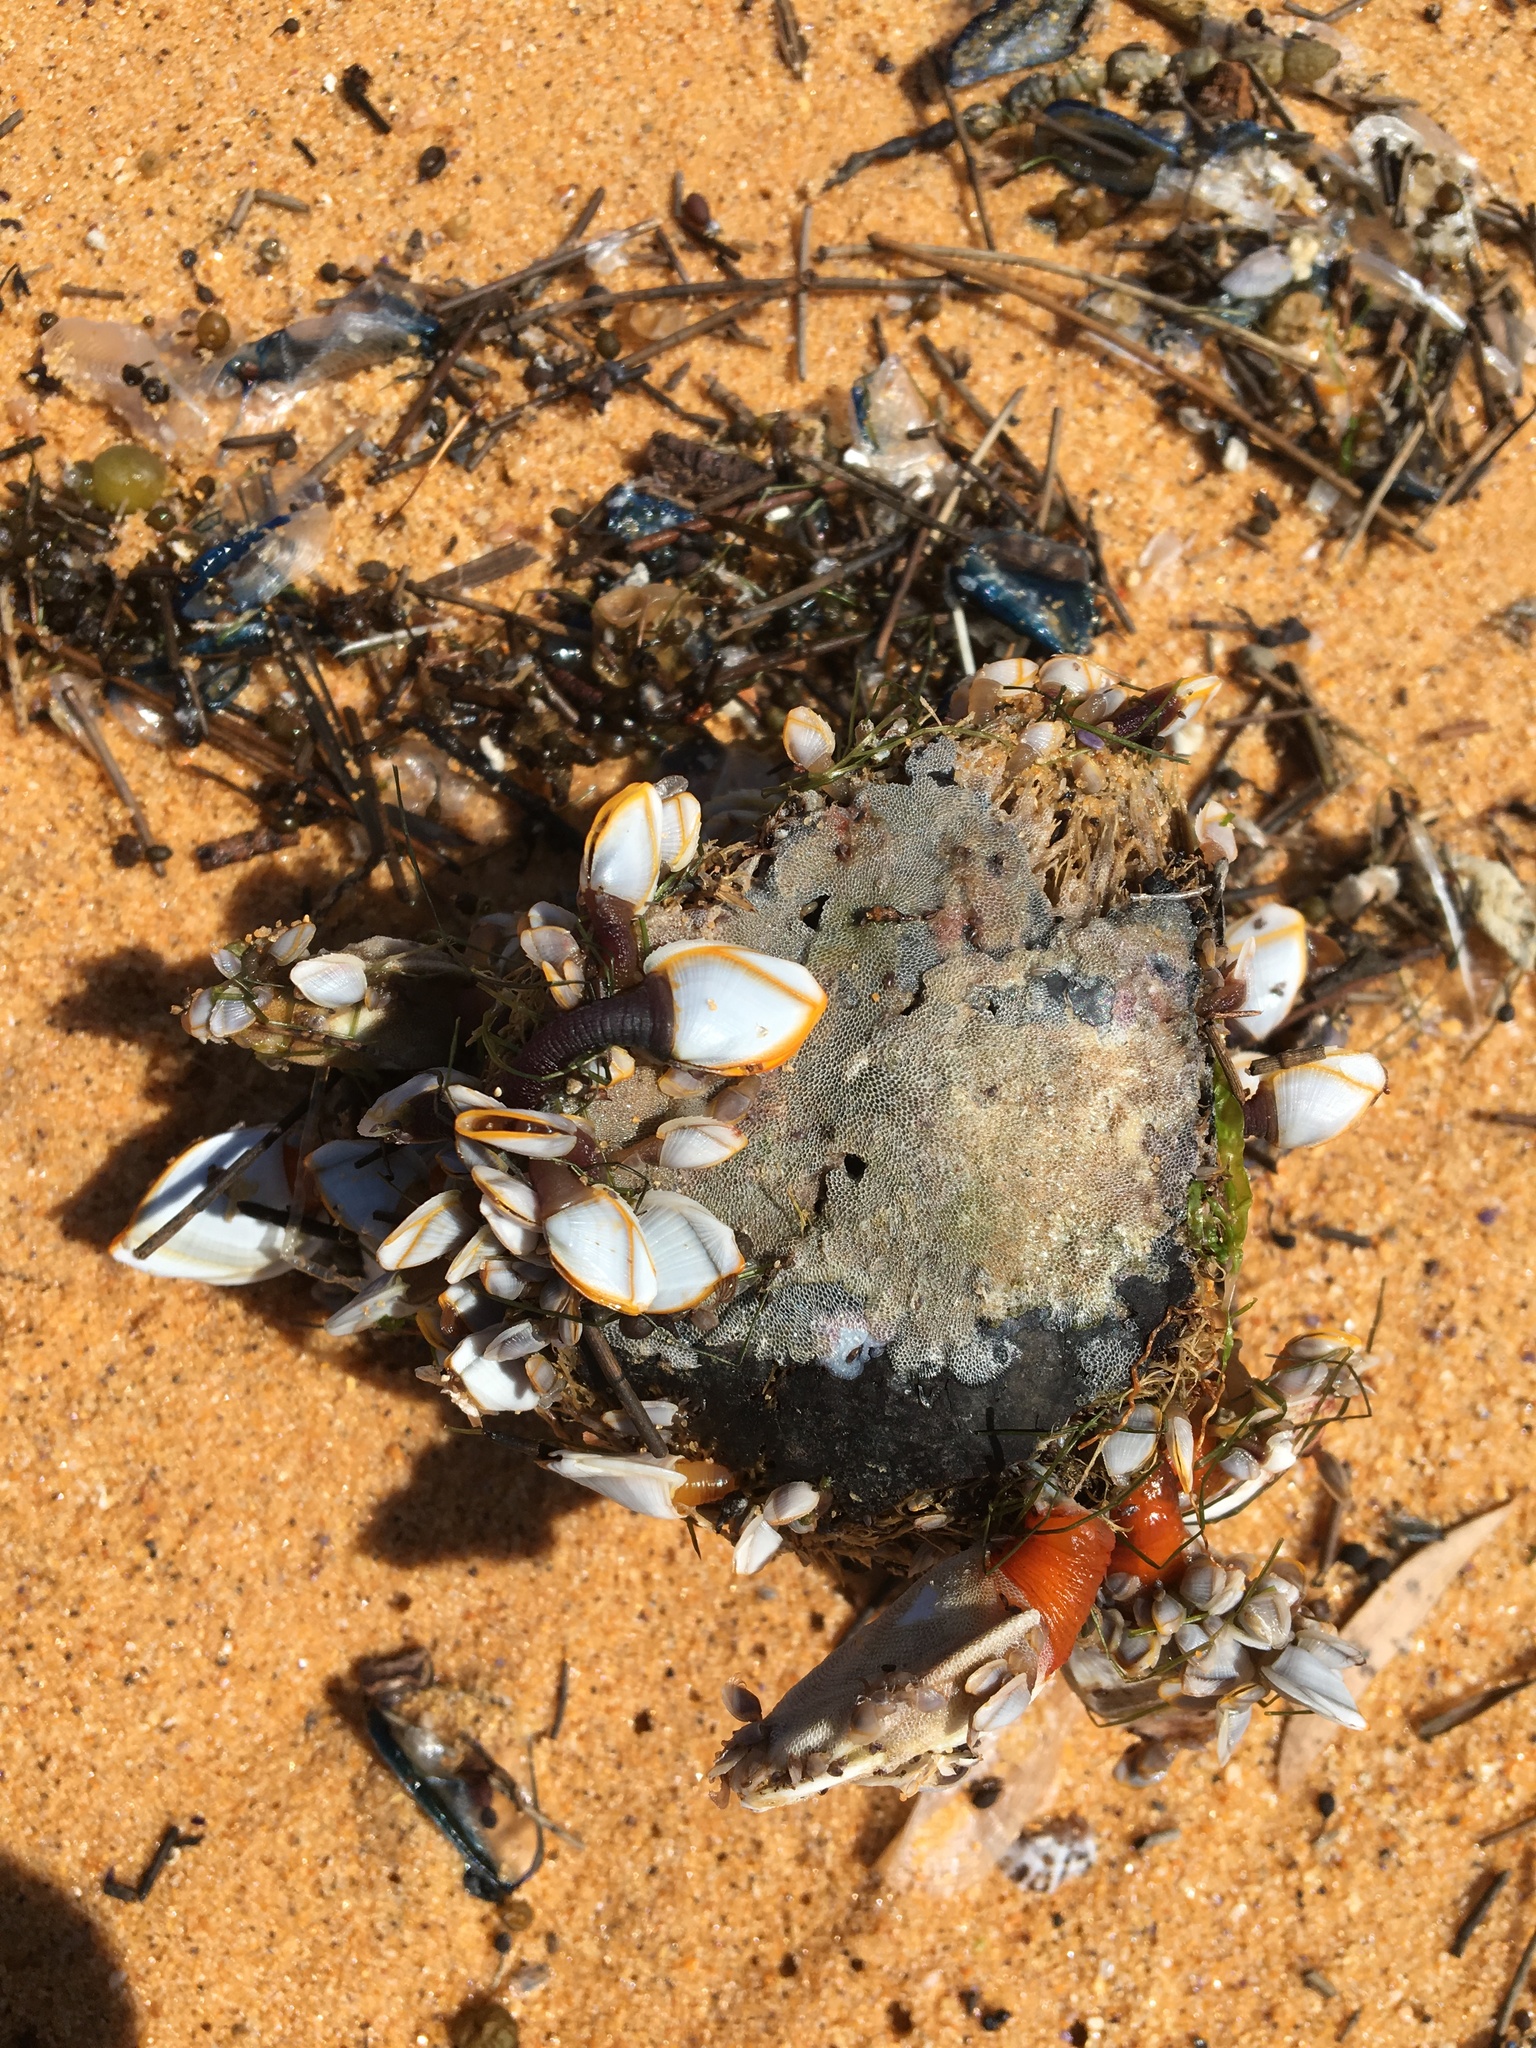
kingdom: Animalia
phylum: Arthropoda
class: Maxillopoda
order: Pedunculata
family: Lepadidae
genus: Lepas
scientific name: Lepas anserifera
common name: Goose barnacle
